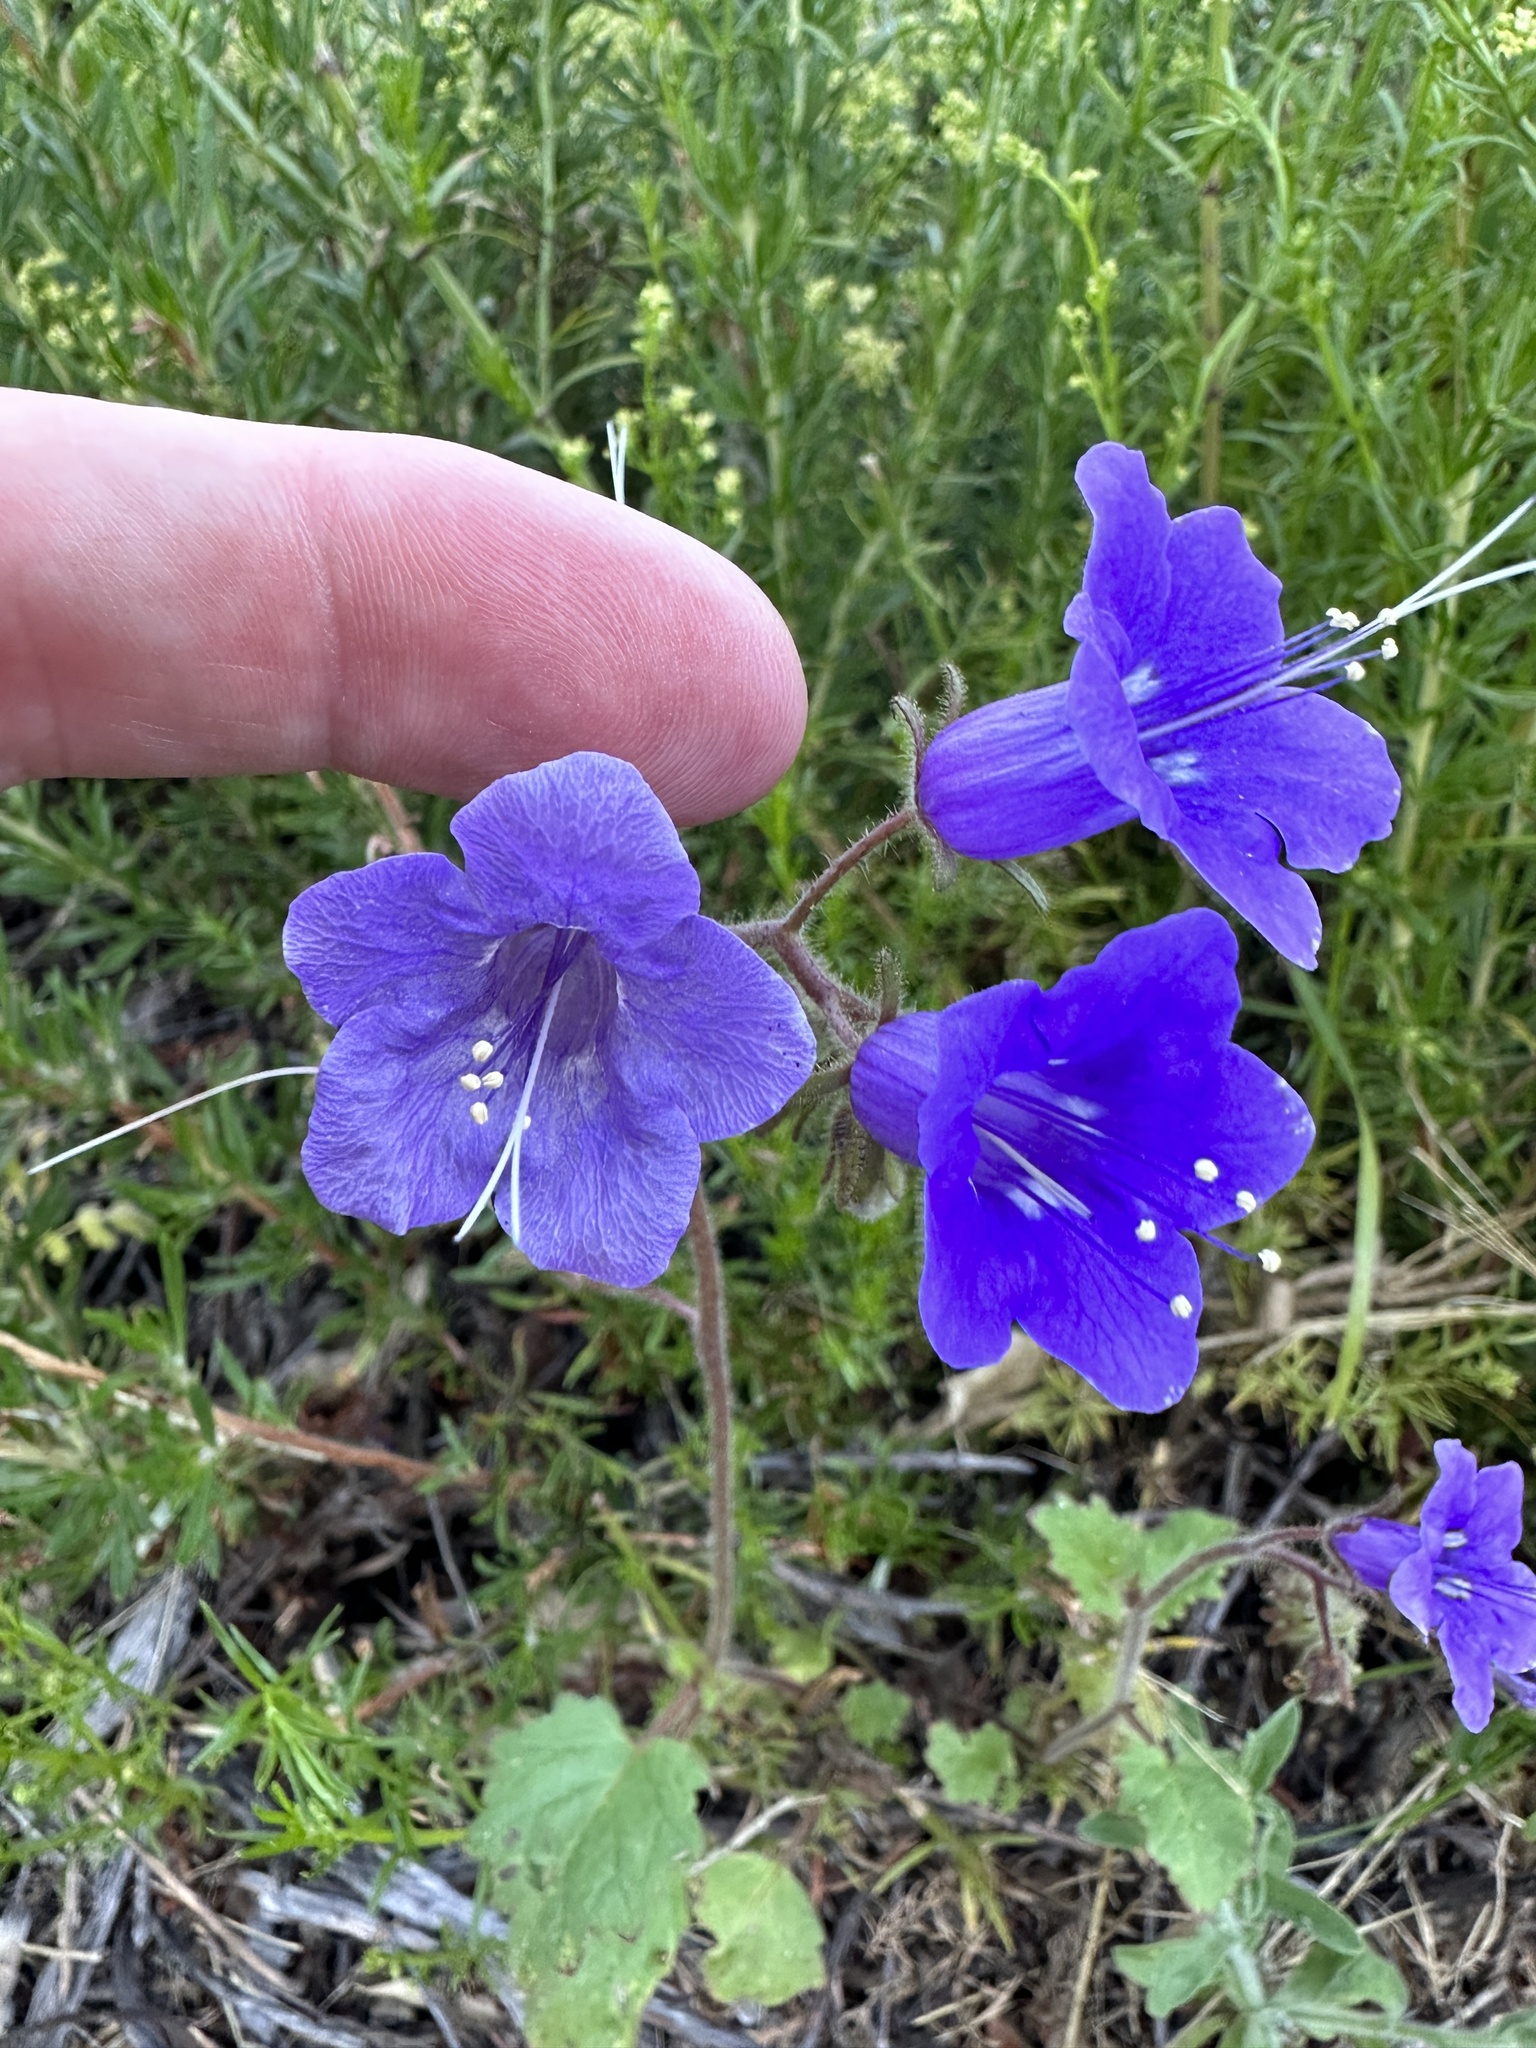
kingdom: Plantae
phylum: Tracheophyta
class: Magnoliopsida
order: Boraginales
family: Hydrophyllaceae
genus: Phacelia
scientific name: Phacelia minor
